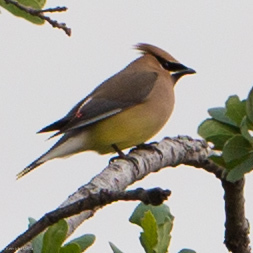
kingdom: Animalia
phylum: Chordata
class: Aves
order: Passeriformes
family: Bombycillidae
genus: Bombycilla
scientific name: Bombycilla cedrorum
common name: Cedar waxwing
